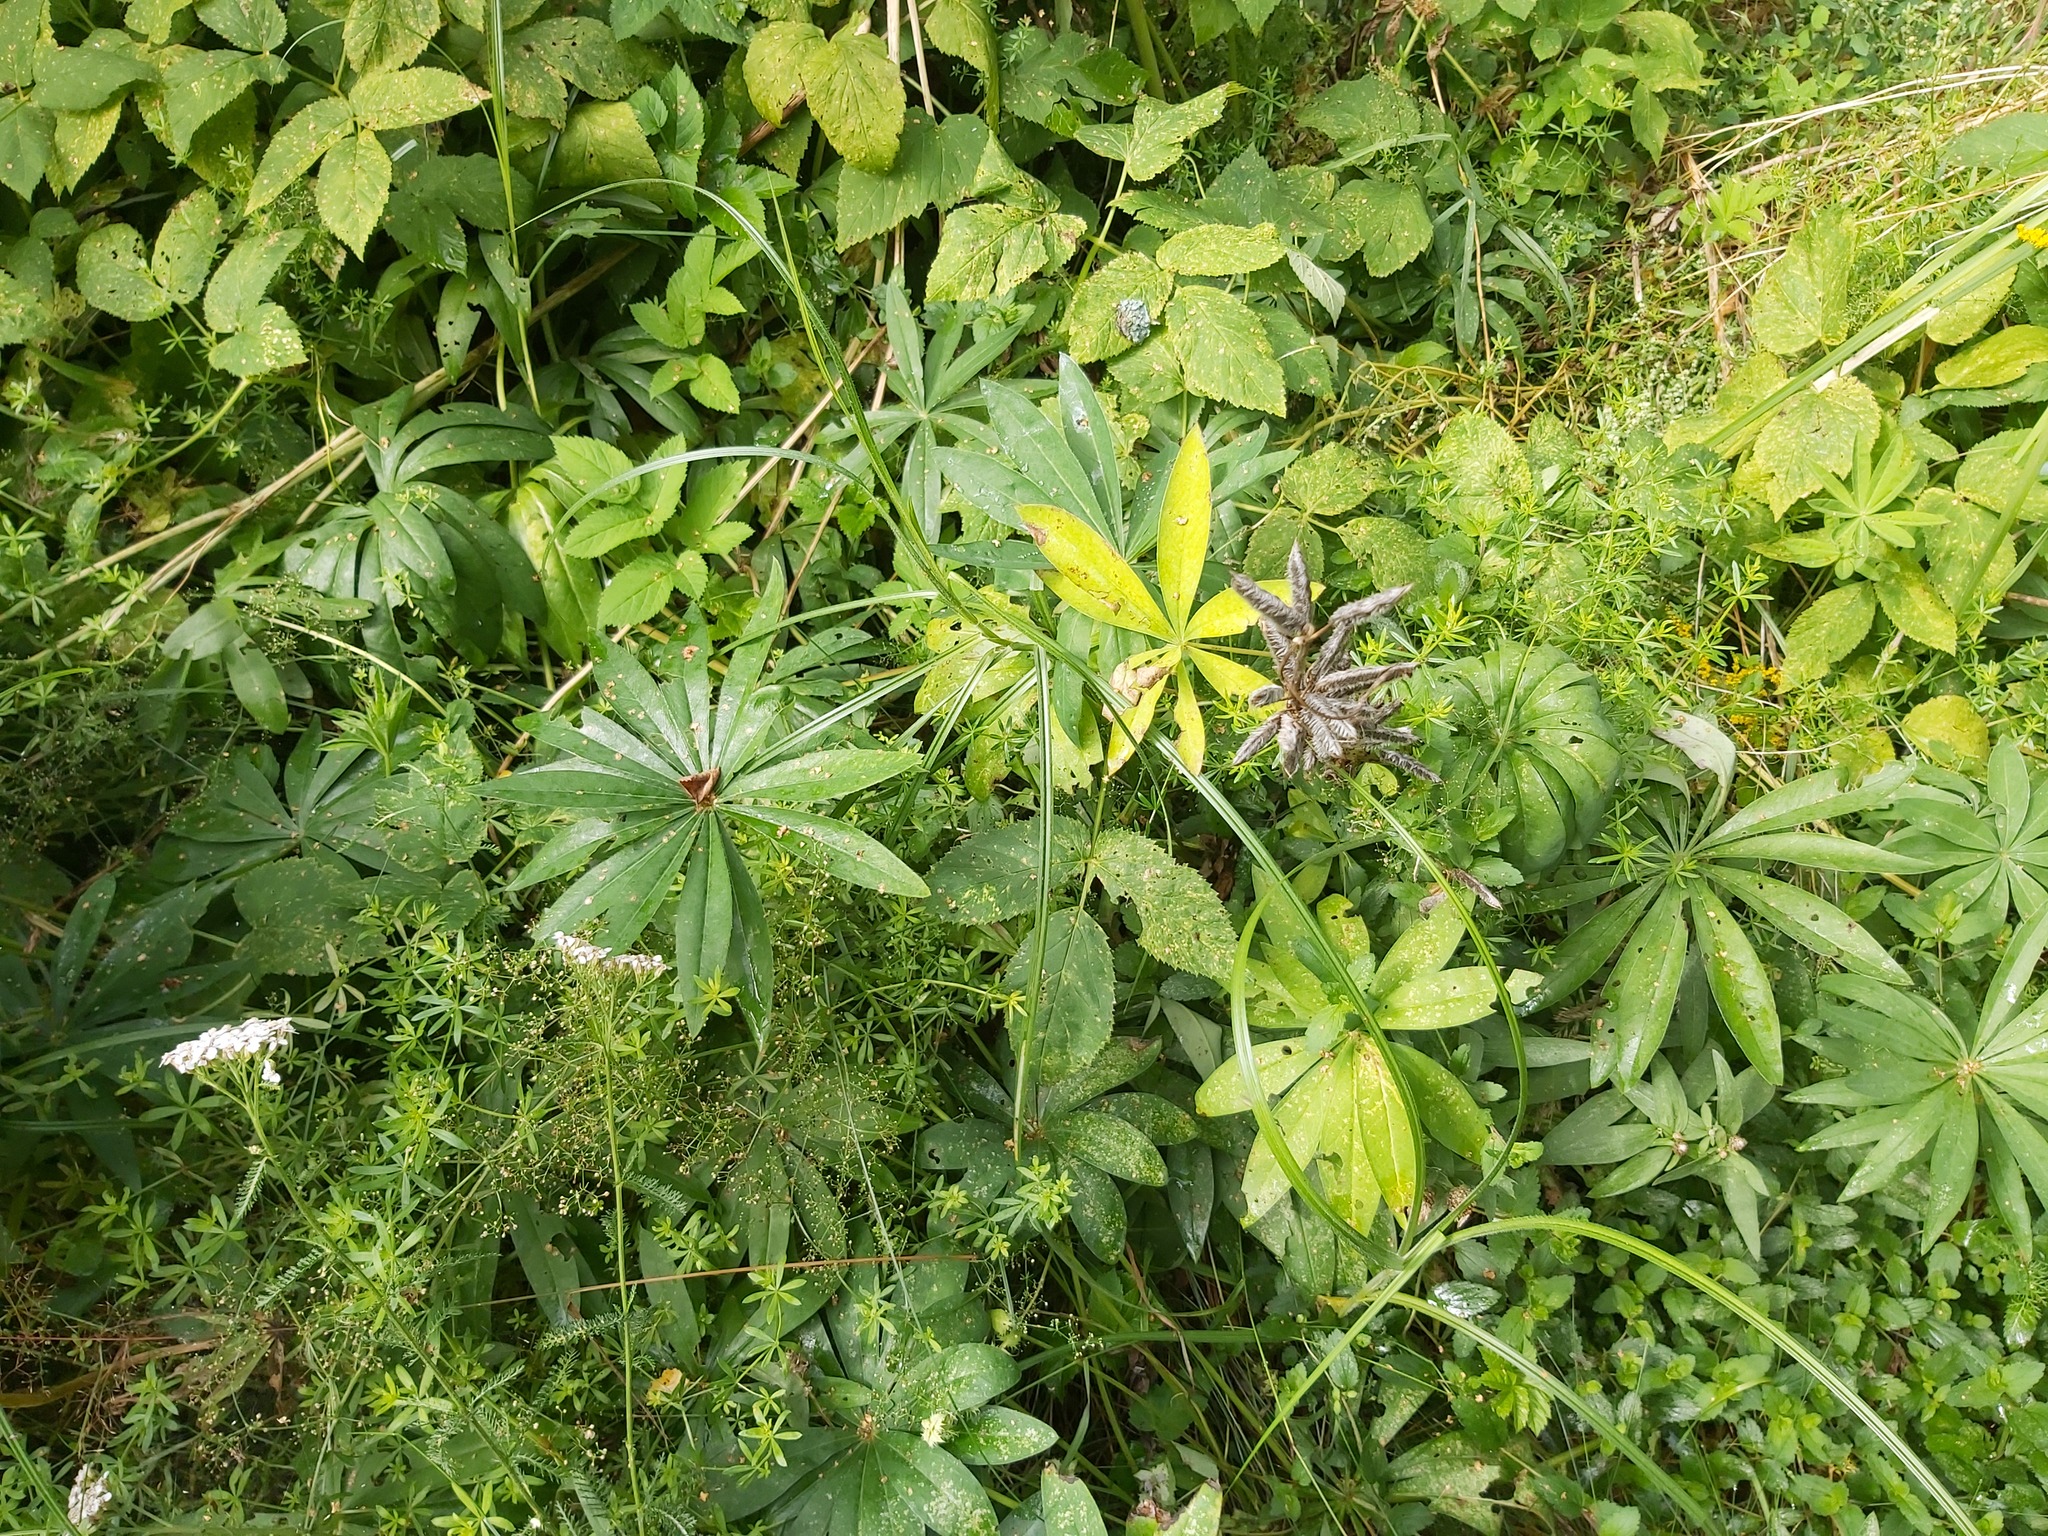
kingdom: Plantae
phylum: Tracheophyta
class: Magnoliopsida
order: Fabales
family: Fabaceae
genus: Lupinus
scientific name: Lupinus polyphyllus
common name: Garden lupin
